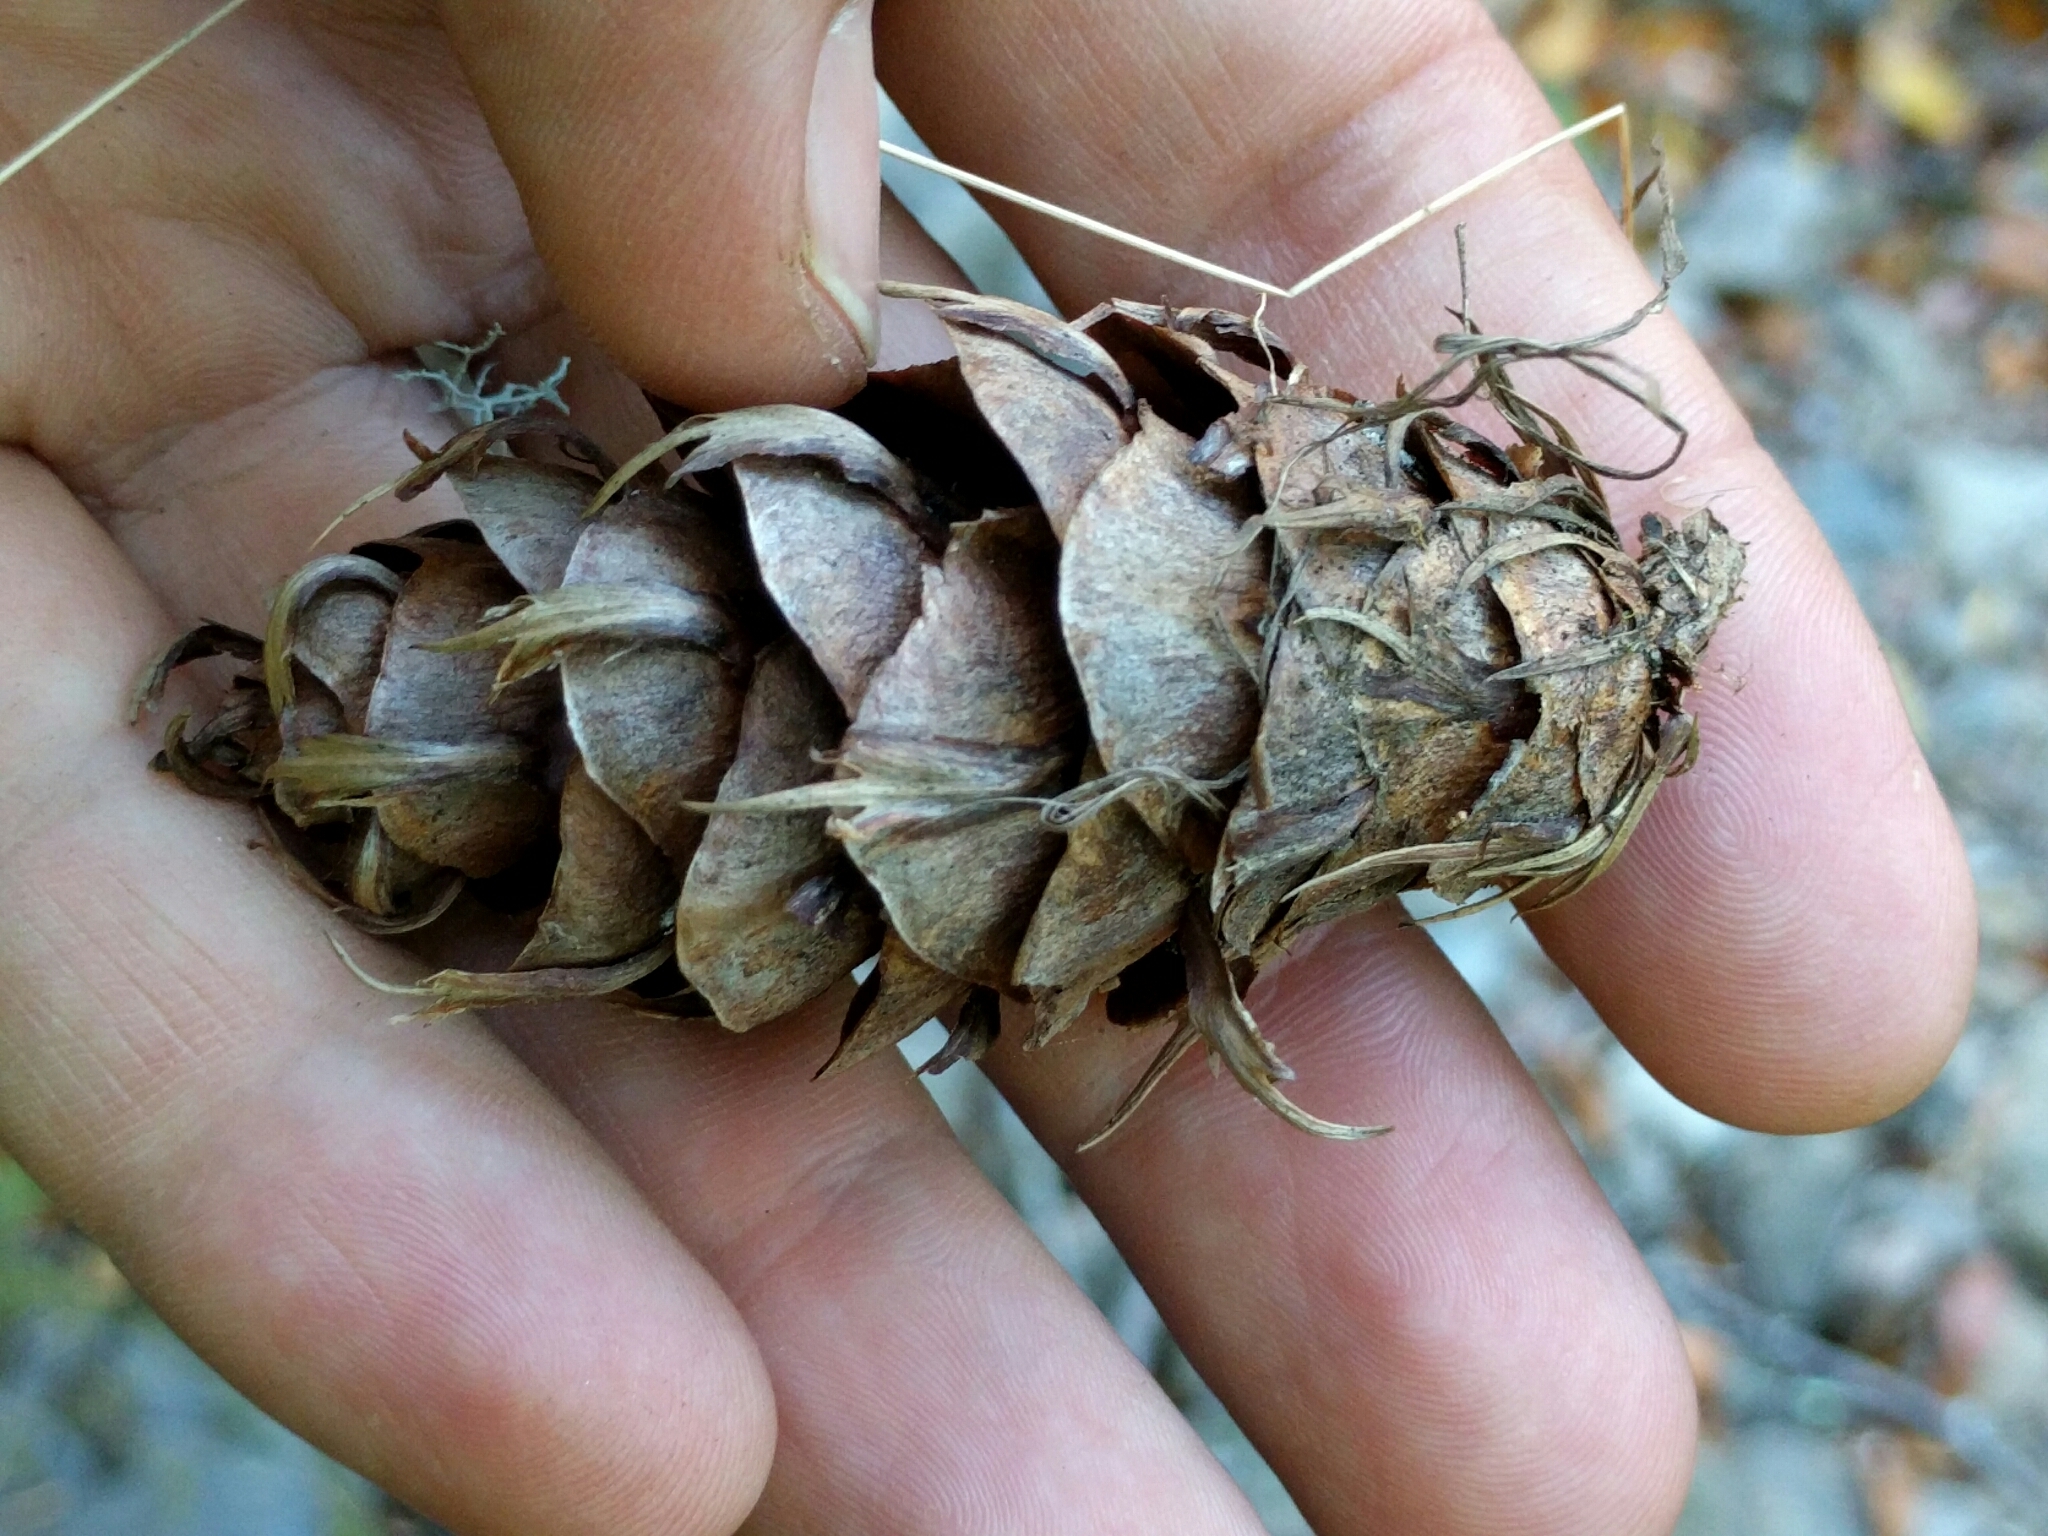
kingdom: Plantae
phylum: Tracheophyta
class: Pinopsida
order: Pinales
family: Pinaceae
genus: Pseudotsuga
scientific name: Pseudotsuga menziesii
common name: Douglas fir
